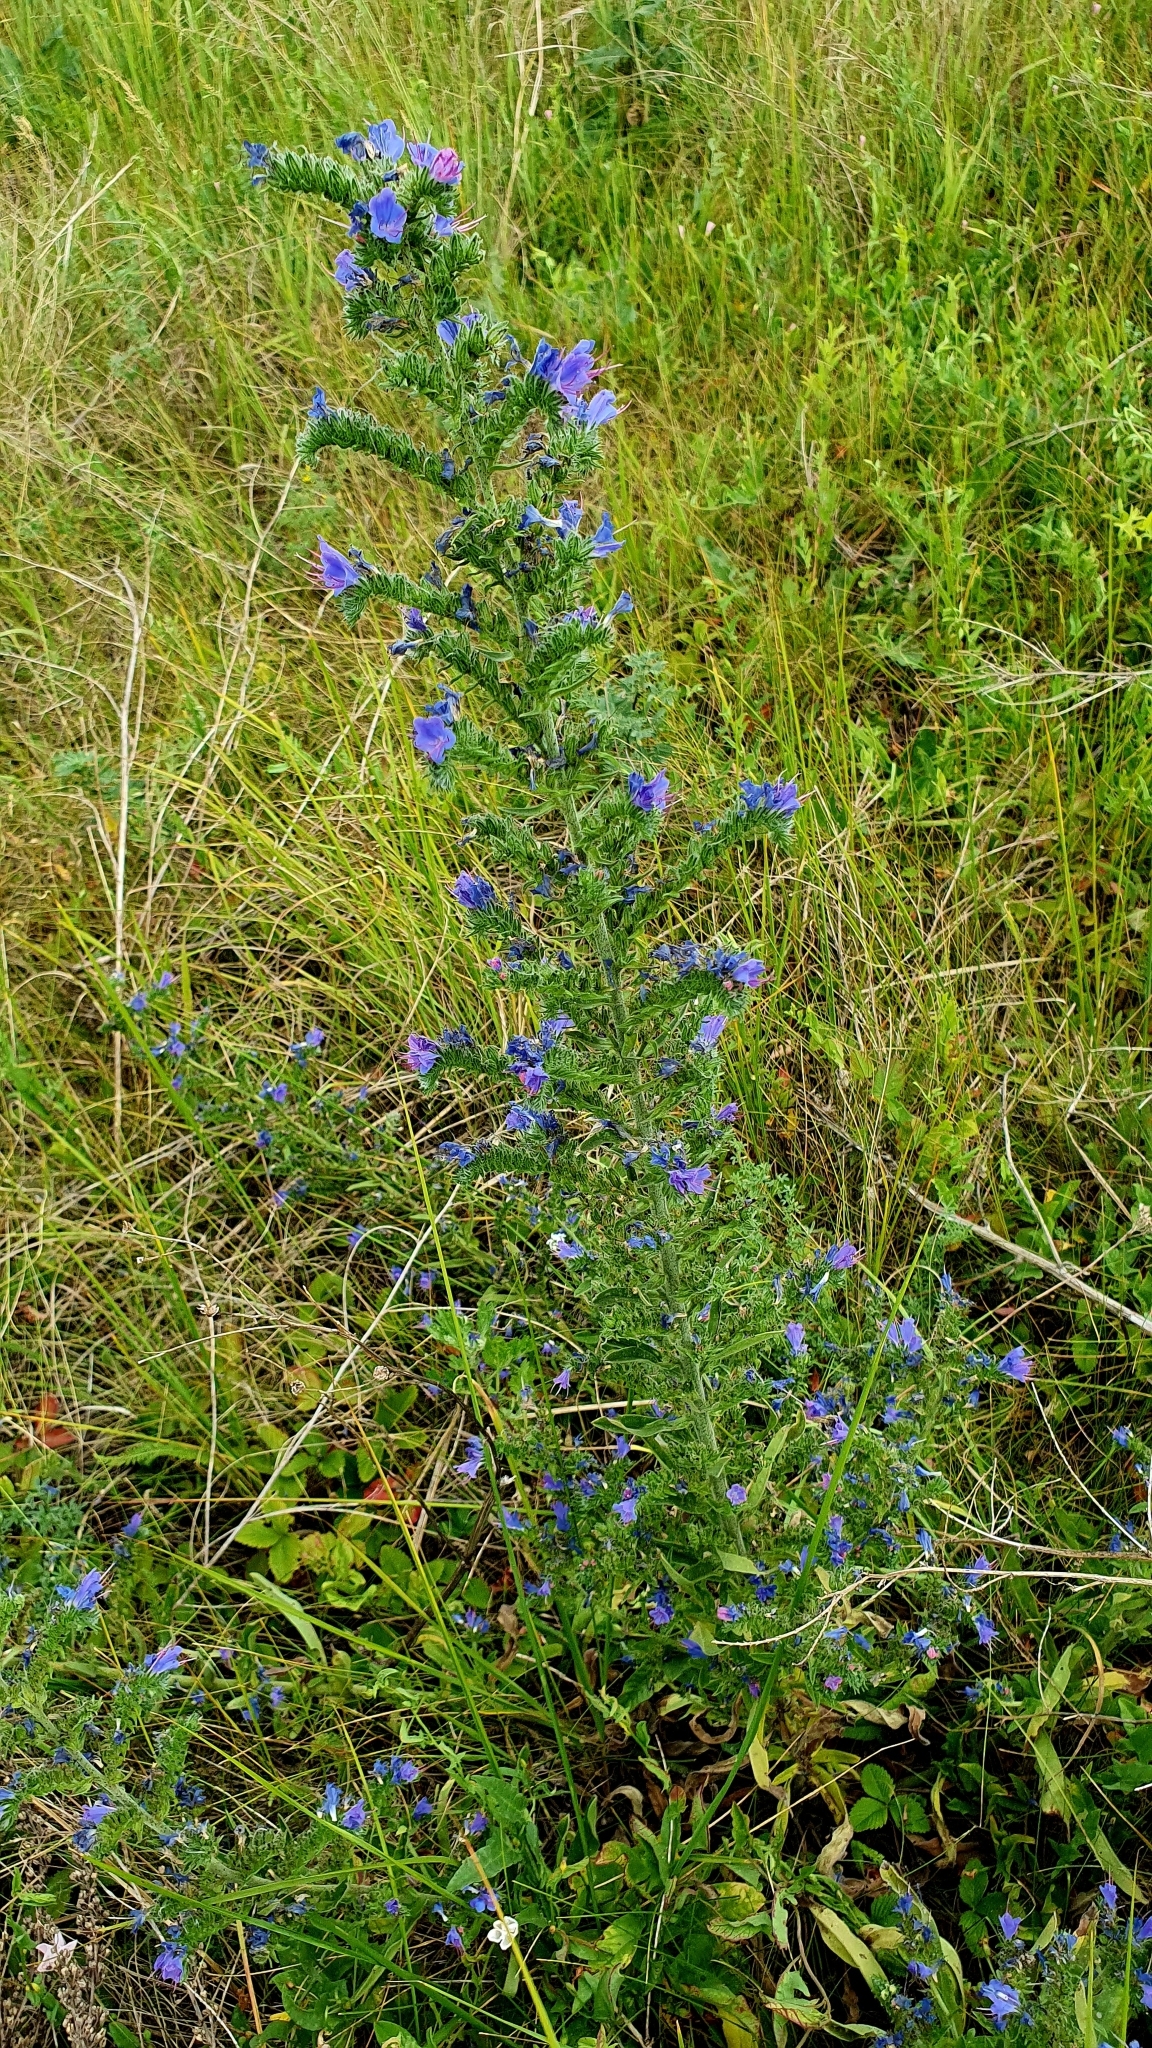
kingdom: Plantae
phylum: Tracheophyta
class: Magnoliopsida
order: Boraginales
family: Boraginaceae
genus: Echium
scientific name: Echium vulgare
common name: Common viper's bugloss
